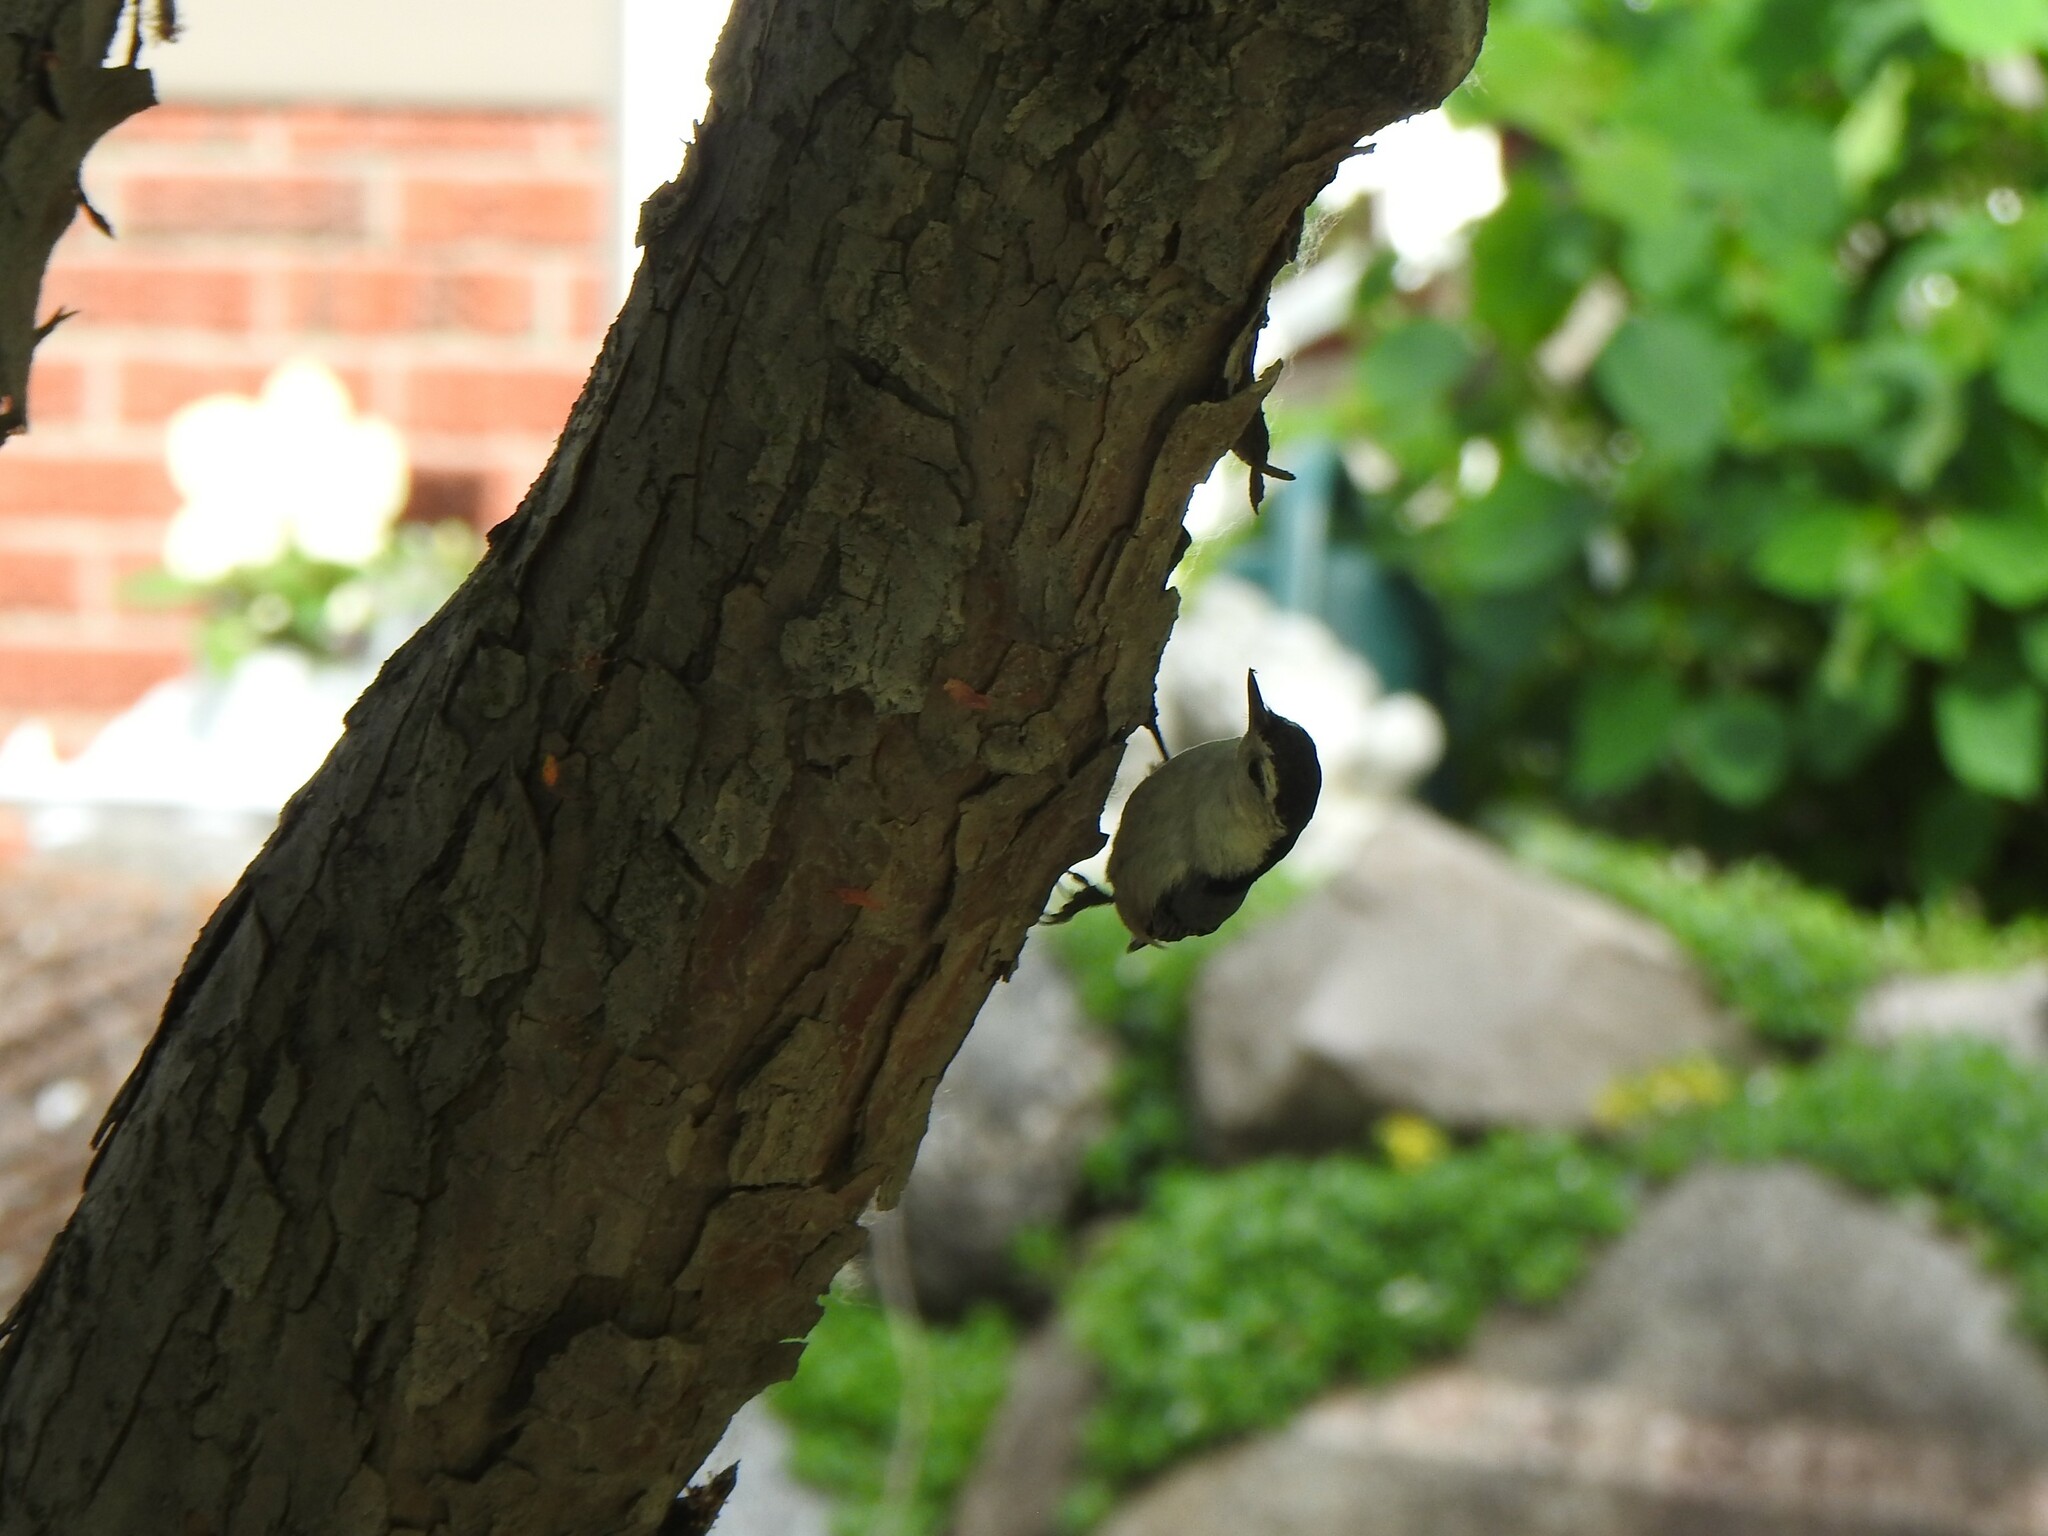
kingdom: Animalia
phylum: Chordata
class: Aves
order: Passeriformes
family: Sittidae
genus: Sitta
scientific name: Sitta carolinensis
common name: White-breasted nuthatch
